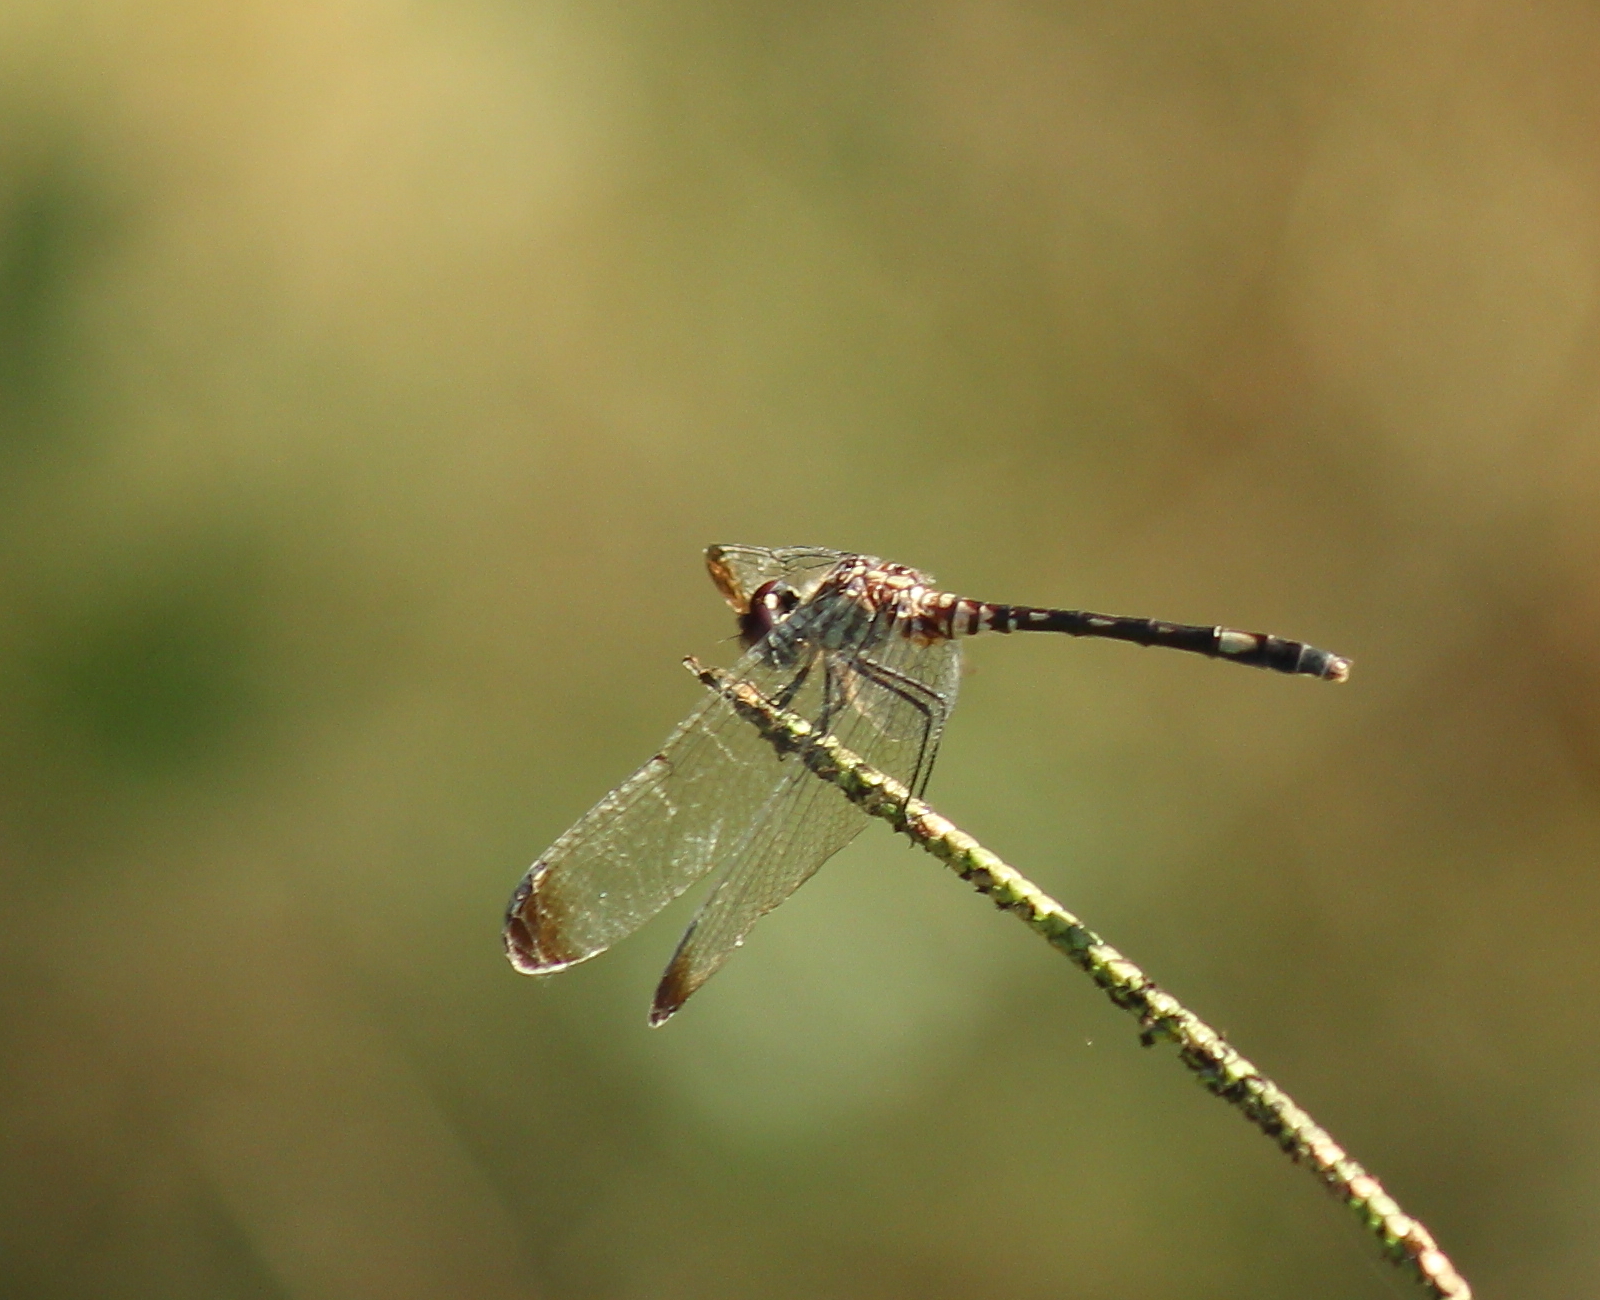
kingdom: Animalia
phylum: Arthropoda
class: Insecta
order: Odonata
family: Libellulidae
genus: Dythemis
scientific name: Dythemis velox
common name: Swift setwing
